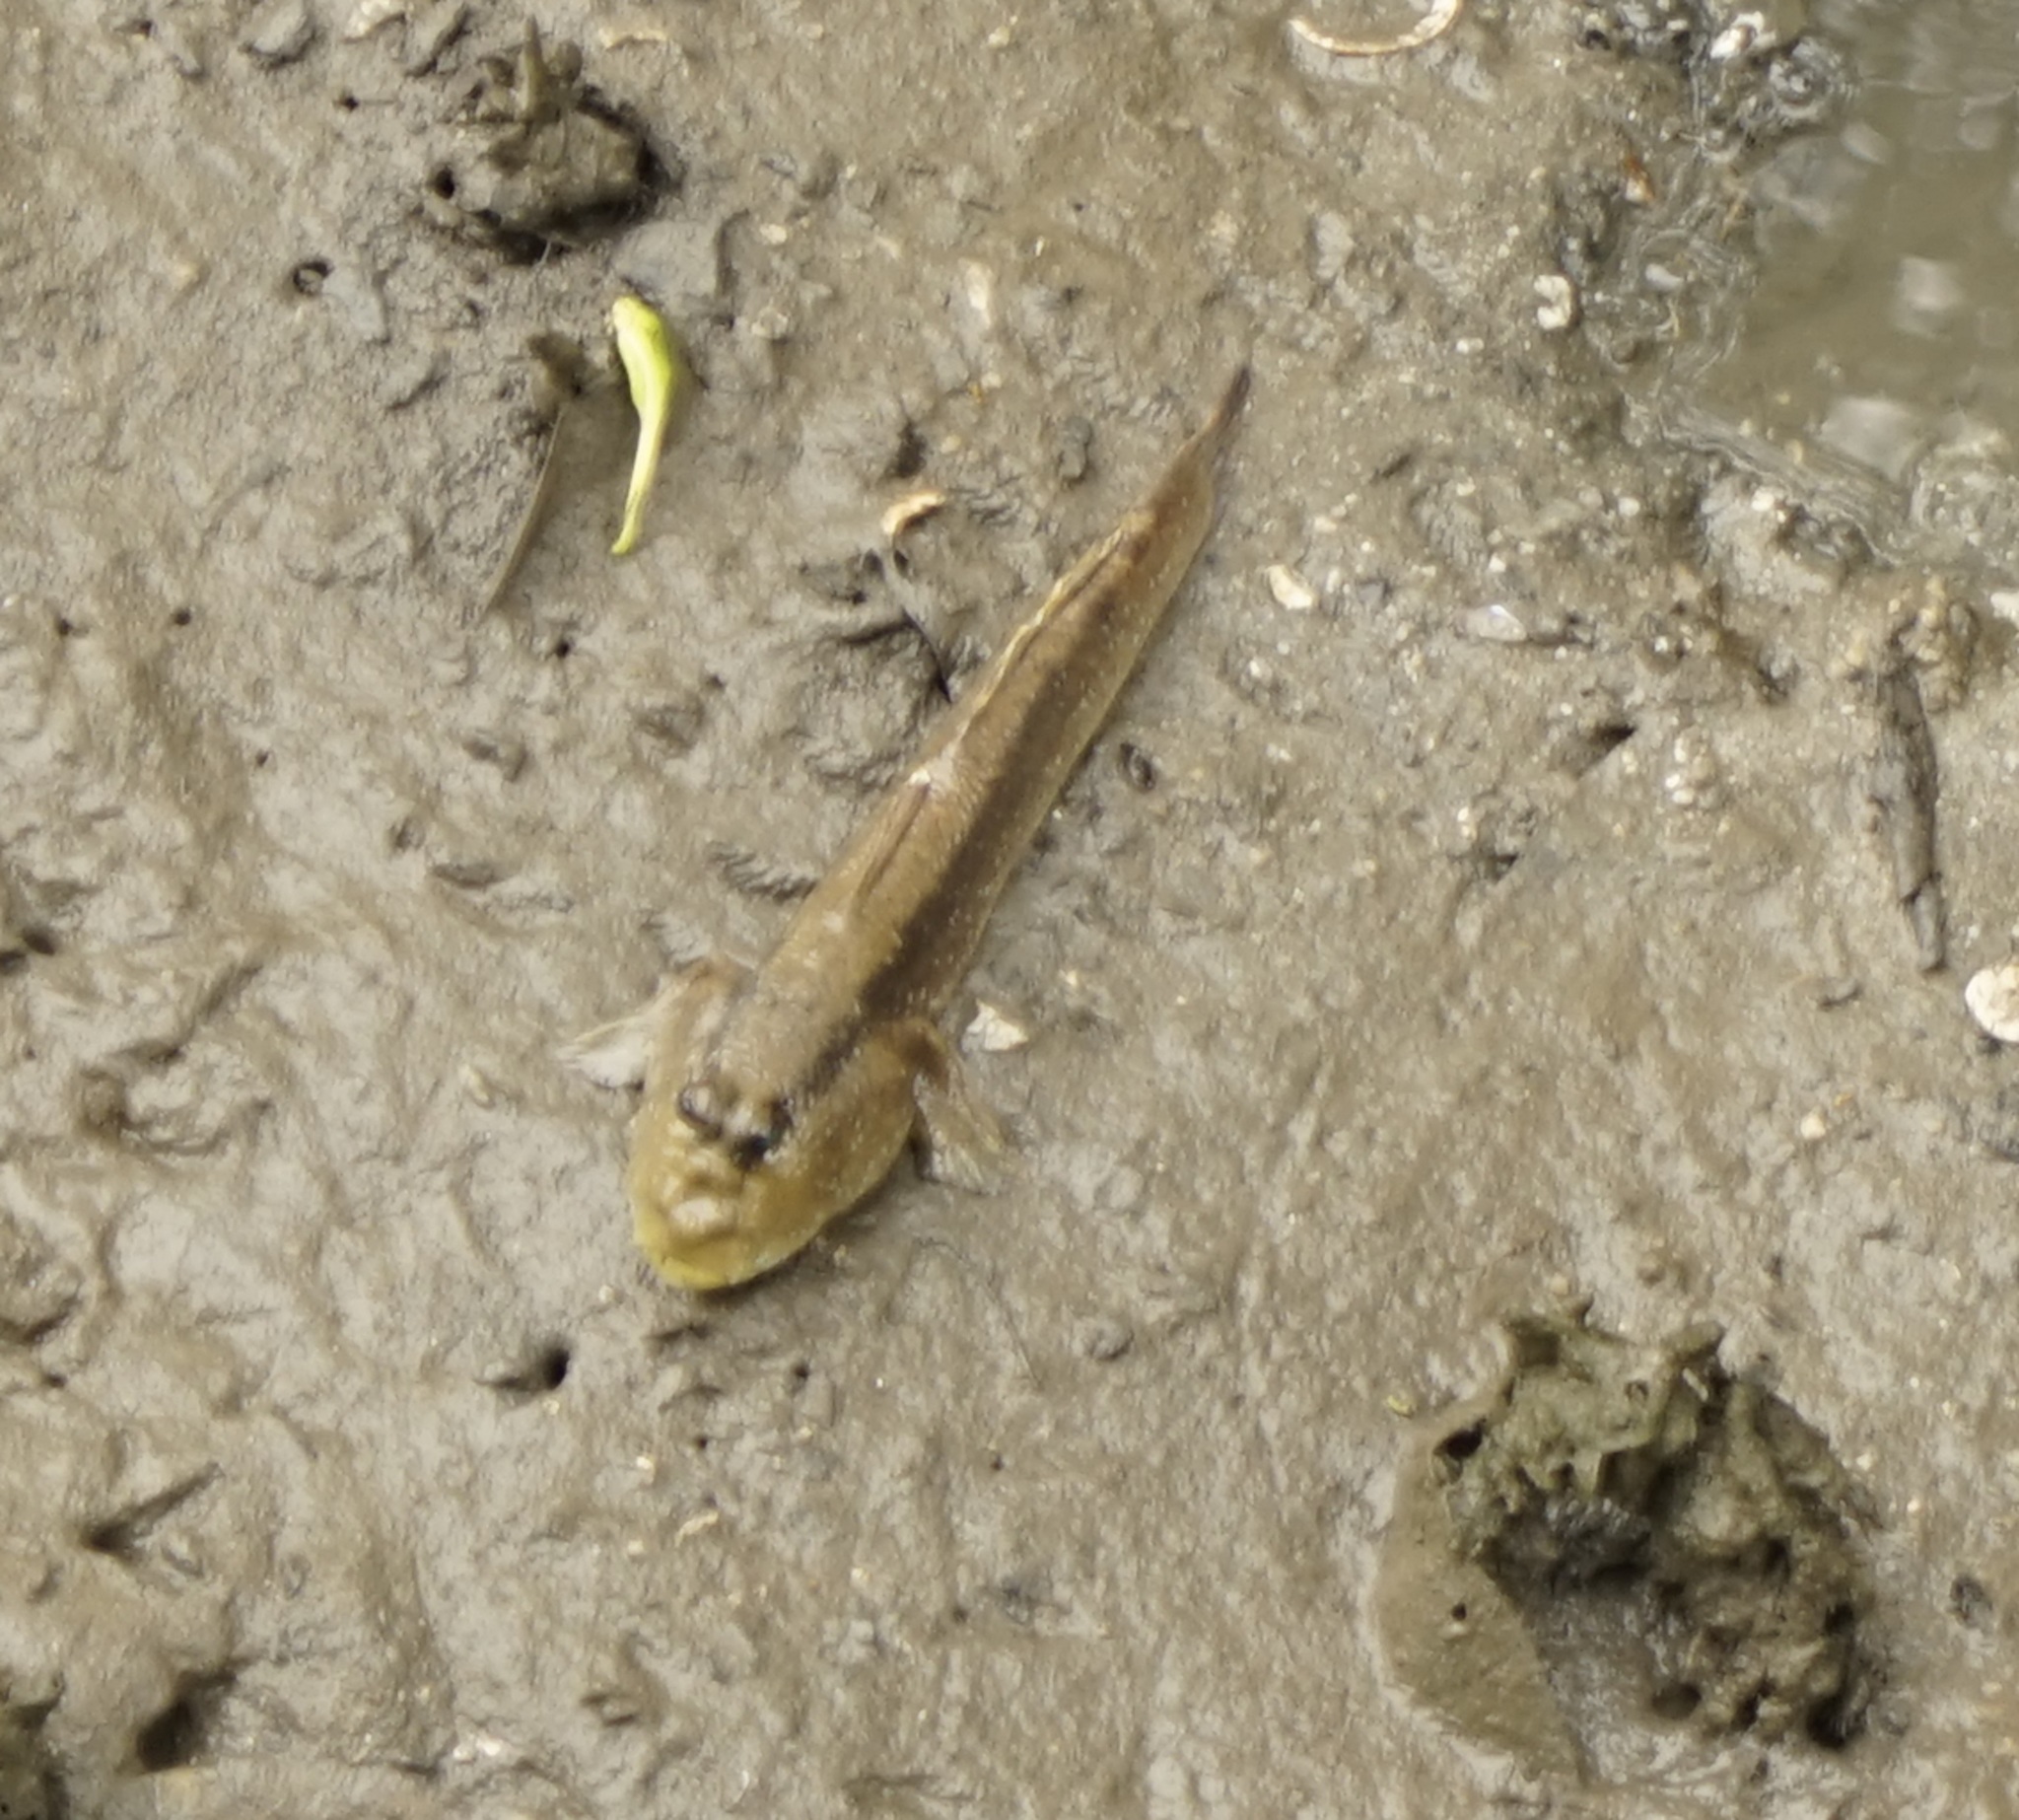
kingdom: Animalia
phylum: Chordata
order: Perciformes
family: Gobiidae
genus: Periophthalmodon
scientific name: Periophthalmodon schlosseri
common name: Giant mudskipper
